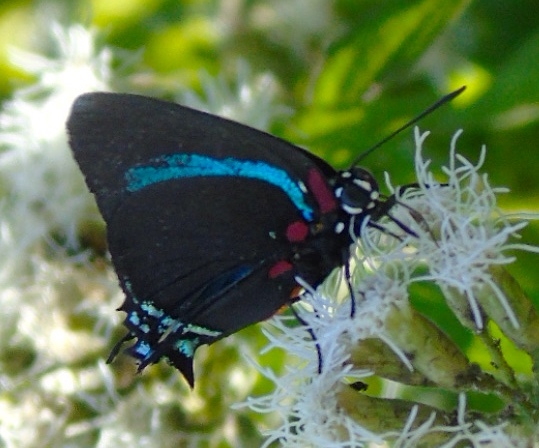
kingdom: Animalia
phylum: Arthropoda
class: Insecta
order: Lepidoptera
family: Lycaenidae
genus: Atlides
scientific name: Atlides
